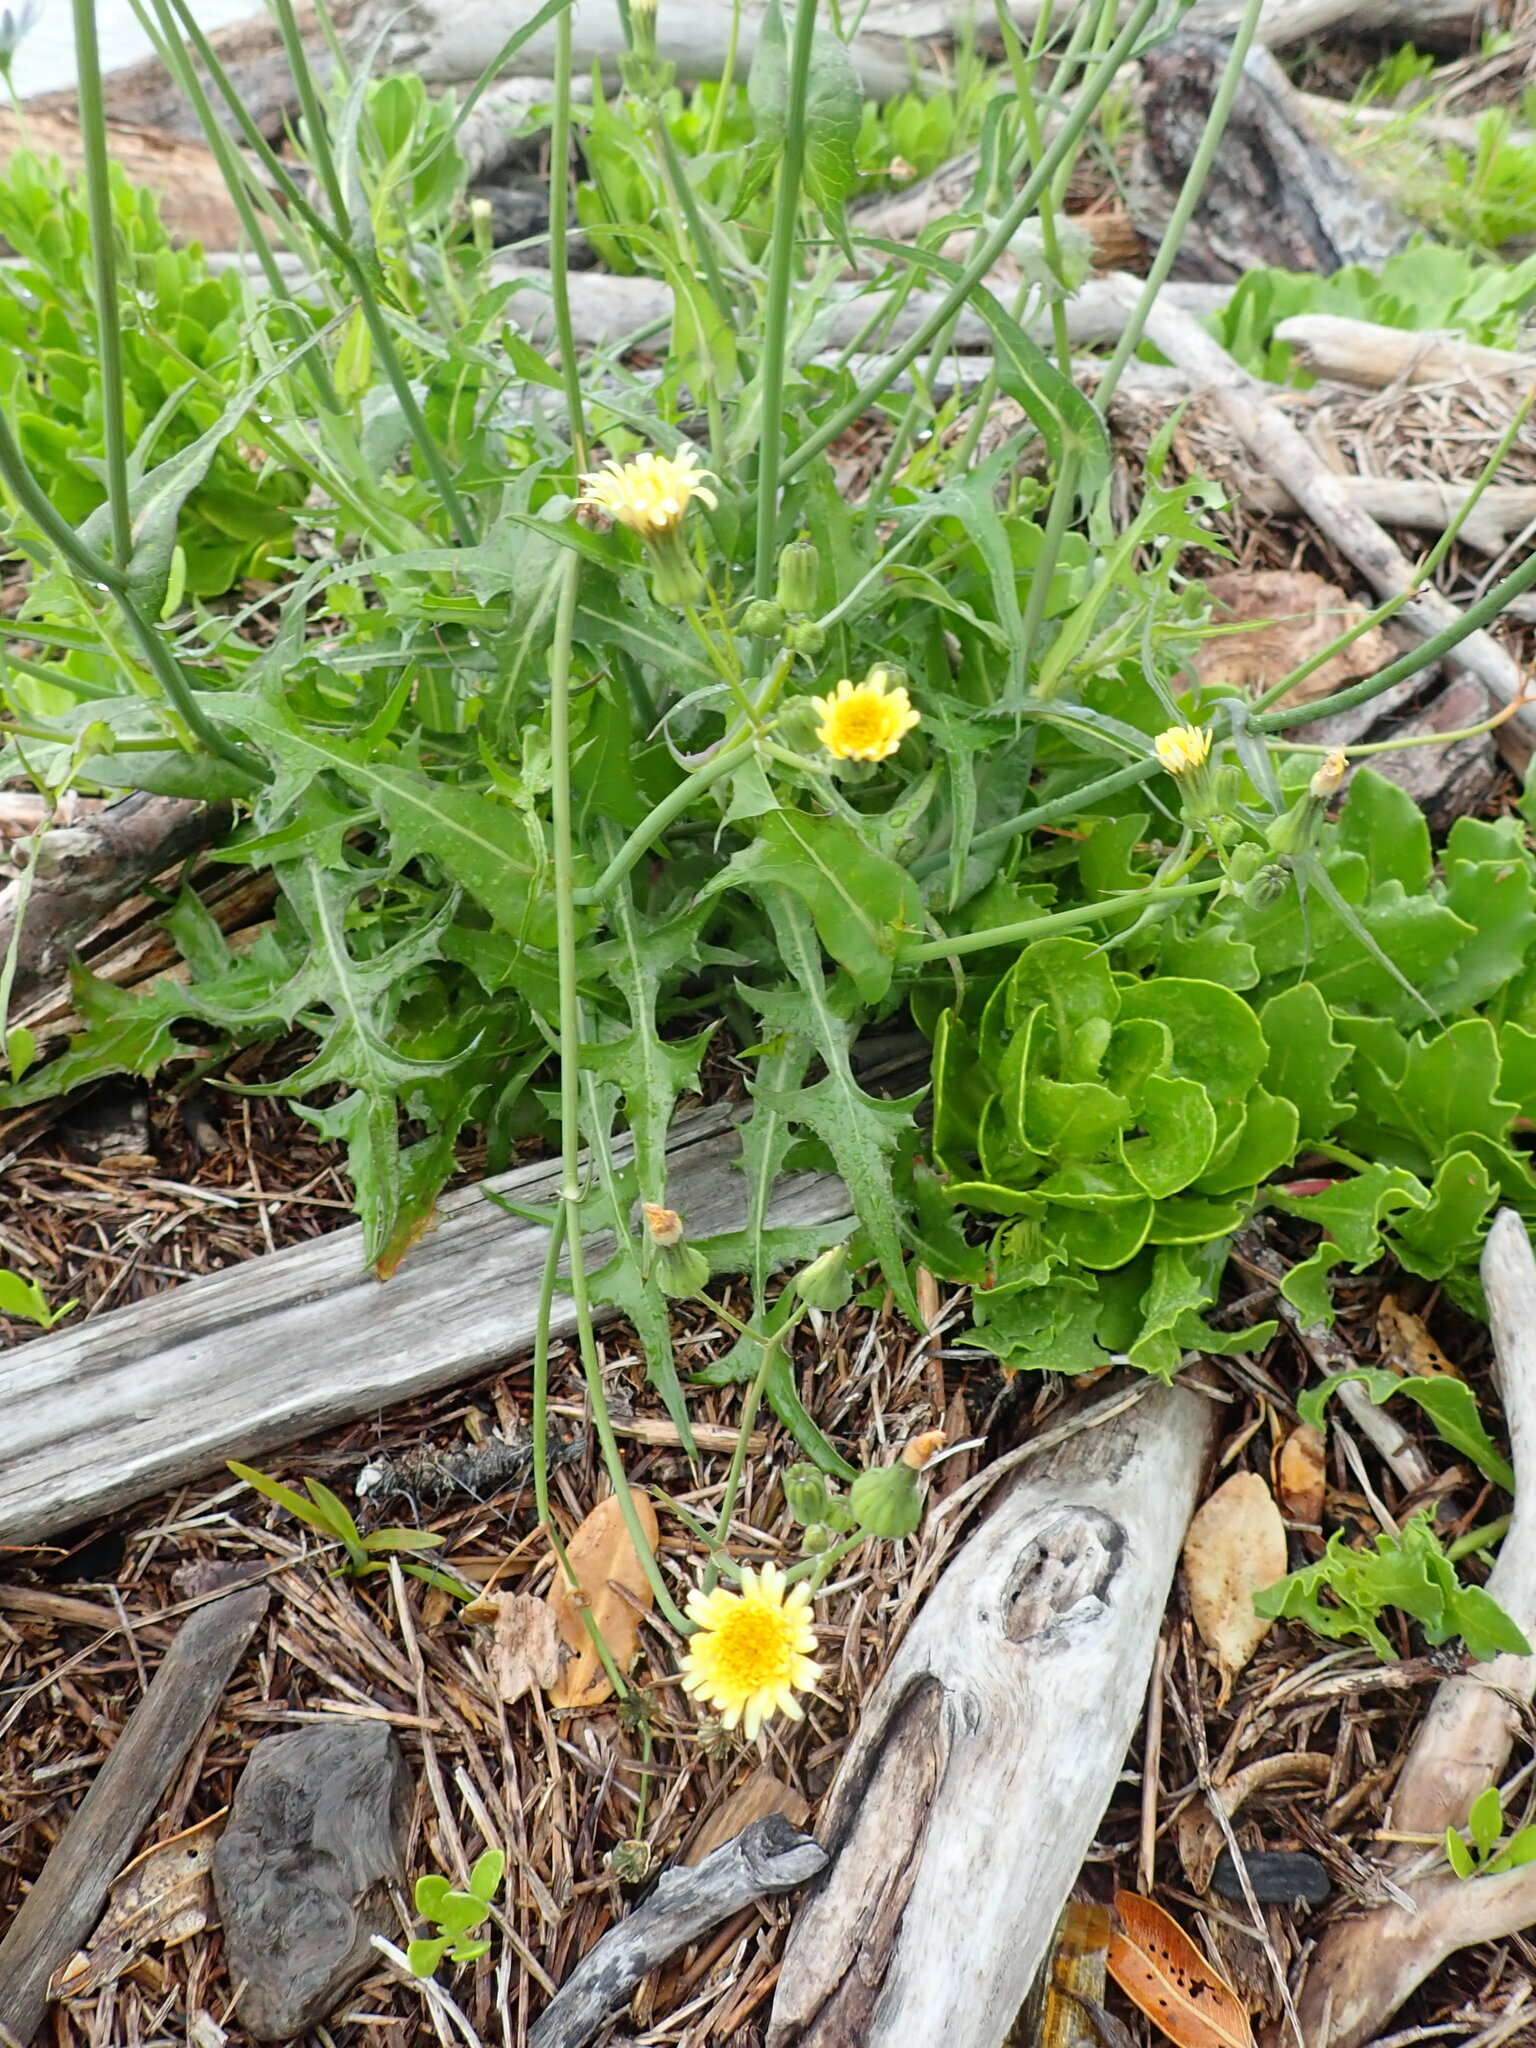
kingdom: Plantae
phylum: Tracheophyta
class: Magnoliopsida
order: Asterales
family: Asteraceae
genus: Sonchus
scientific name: Sonchus oleraceus
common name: Common sowthistle
